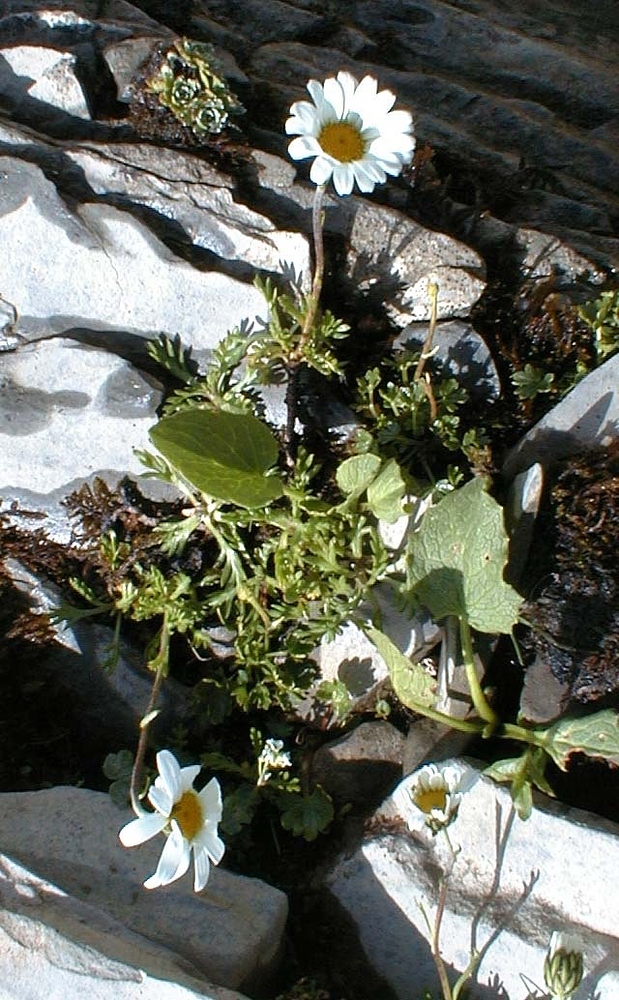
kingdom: Plantae
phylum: Tracheophyta
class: Magnoliopsida
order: Asterales
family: Asteraceae
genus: Leucanthemopsis
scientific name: Leucanthemopsis alpina
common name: Alpine moon daisy
